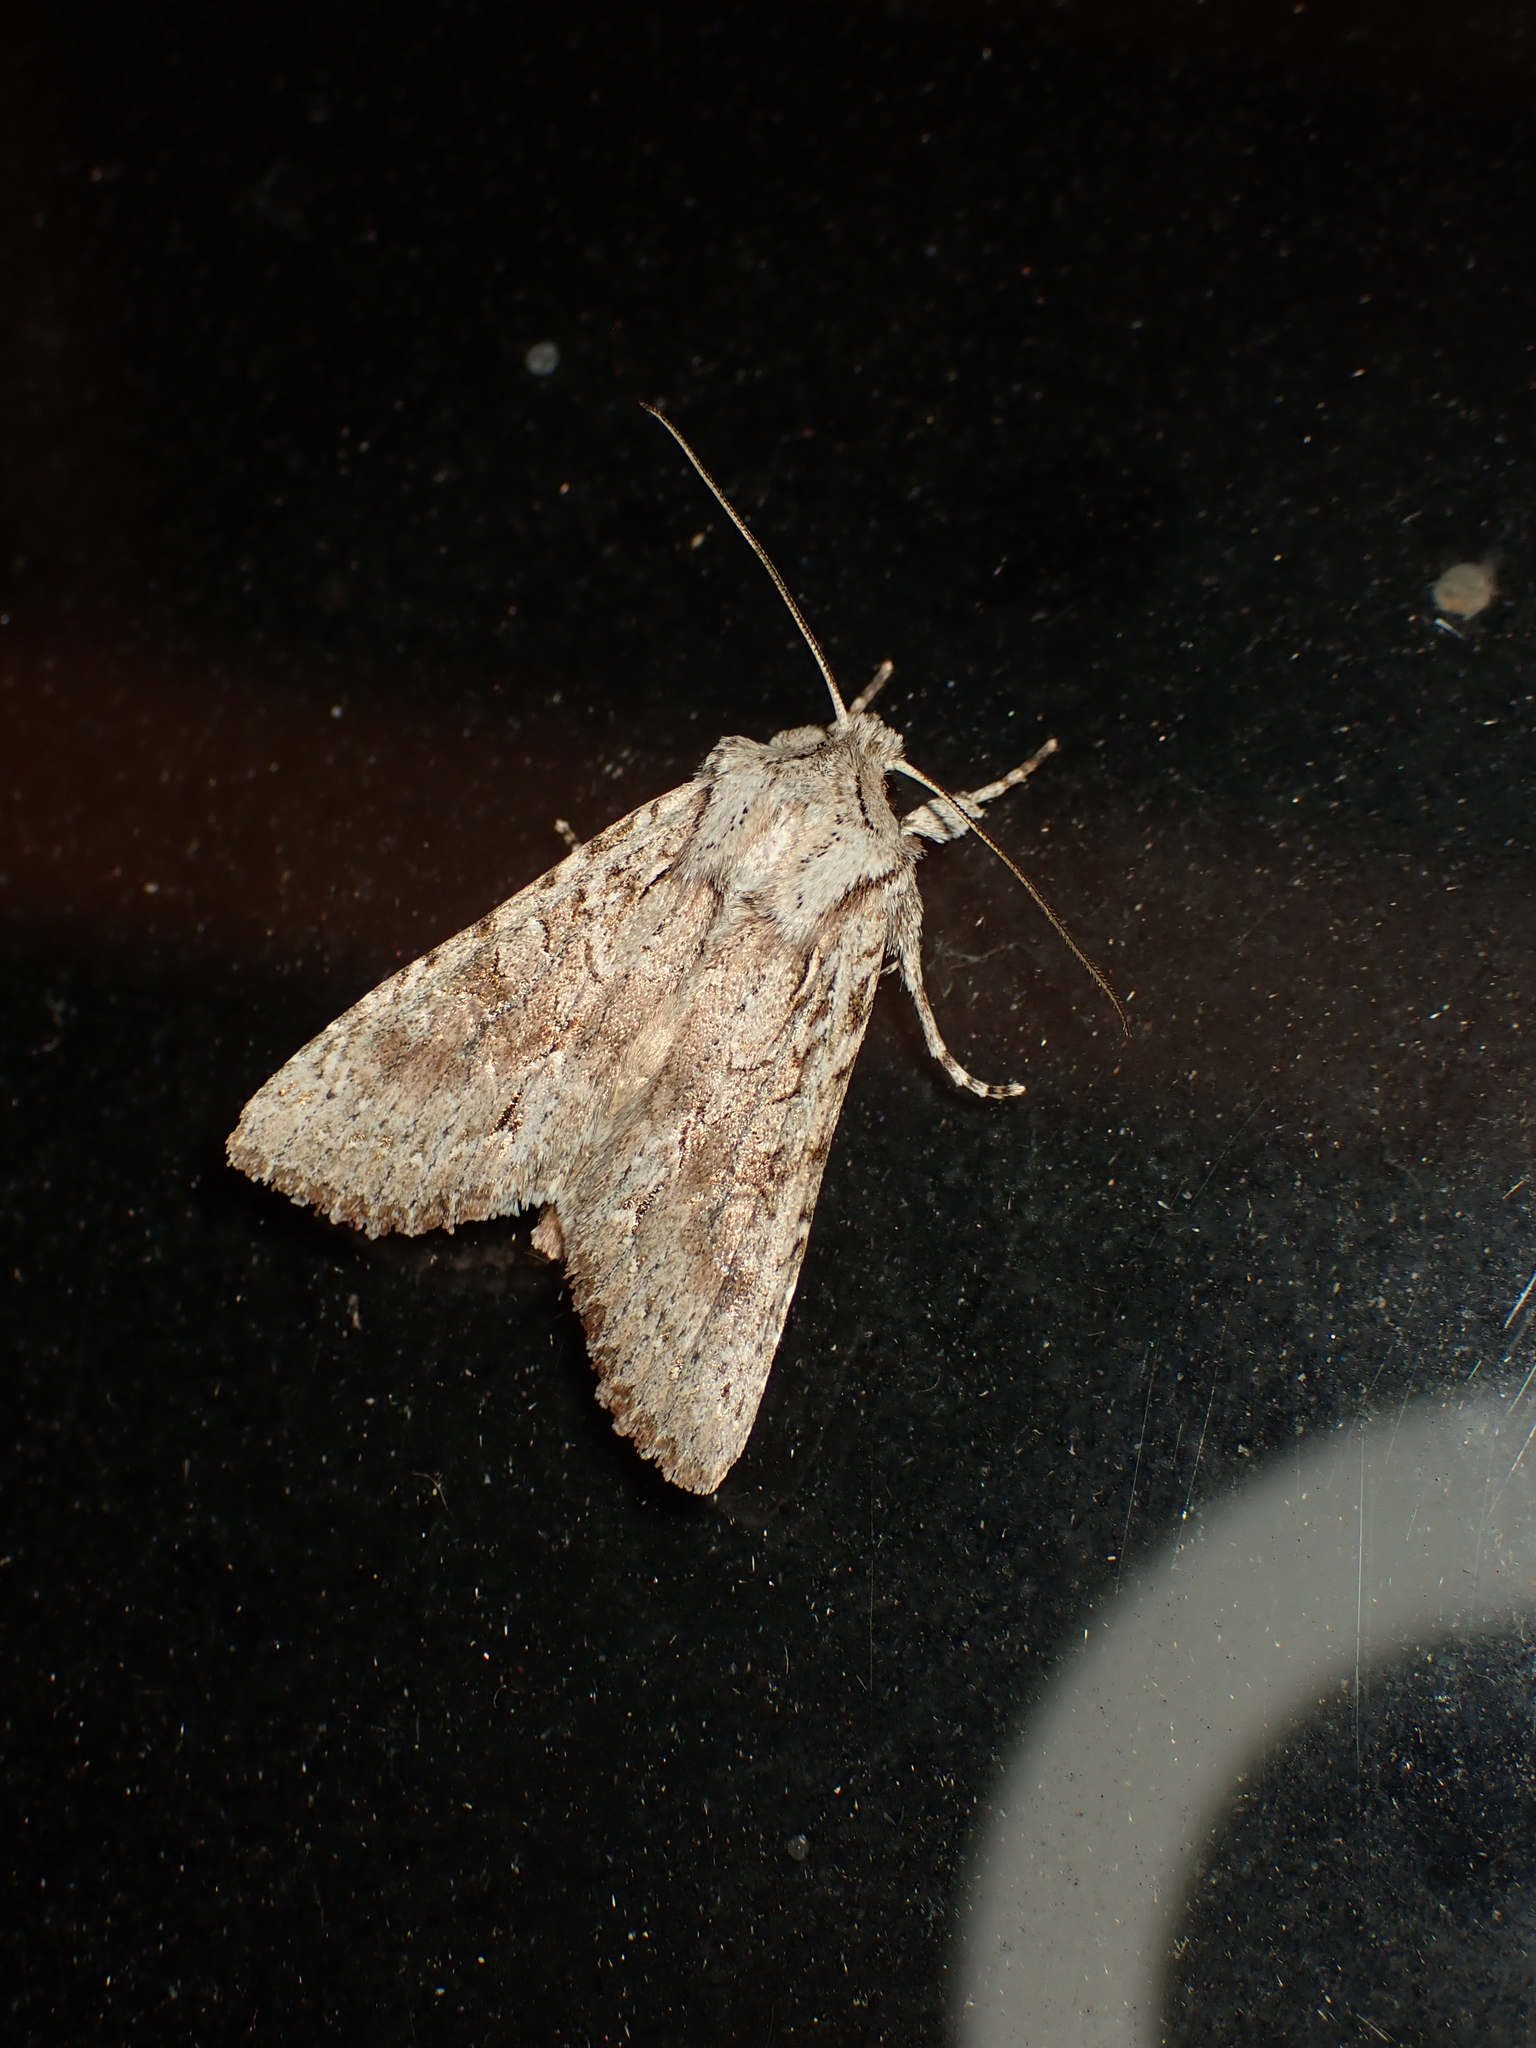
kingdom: Animalia
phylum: Arthropoda
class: Insecta
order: Lepidoptera
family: Noctuidae
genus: Ichneutica
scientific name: Ichneutica mutans
